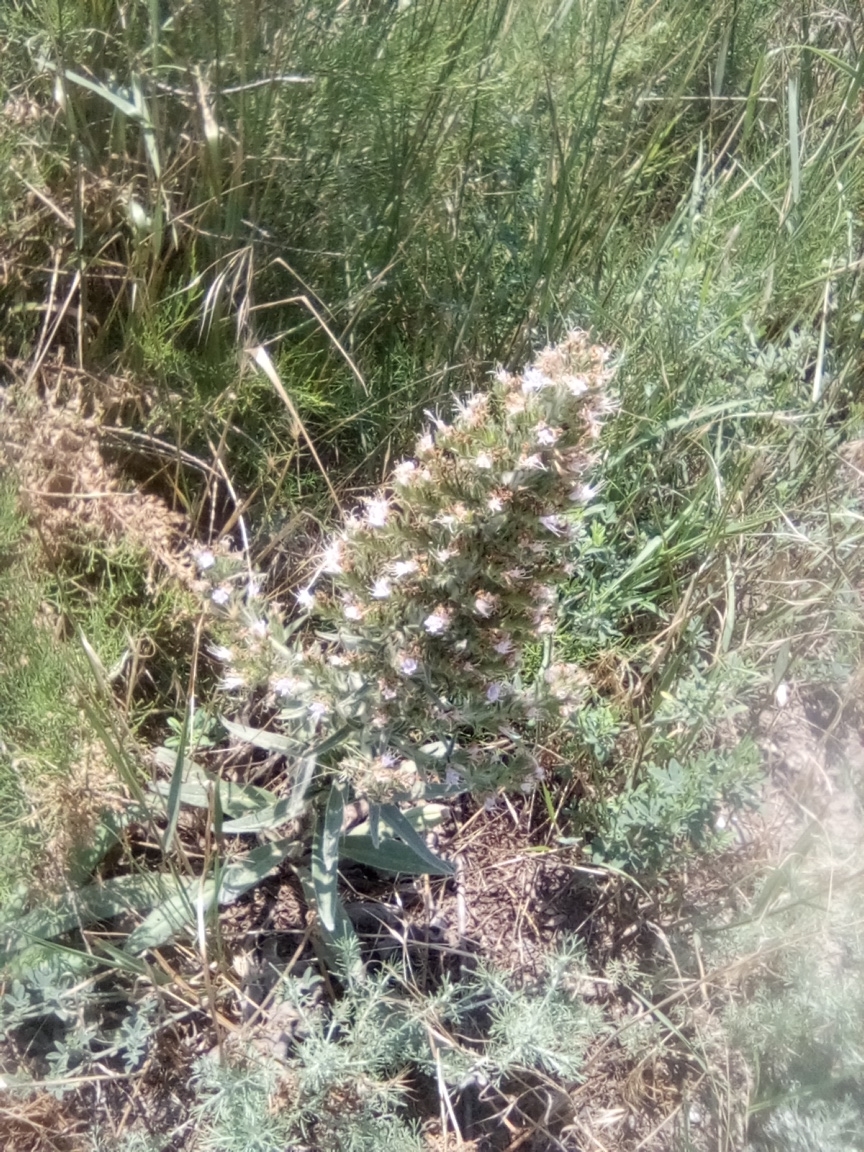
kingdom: Plantae
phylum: Tracheophyta
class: Magnoliopsida
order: Boraginales
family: Boraginaceae
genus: Echium
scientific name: Echium italicum
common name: Italian viper's bugloss
